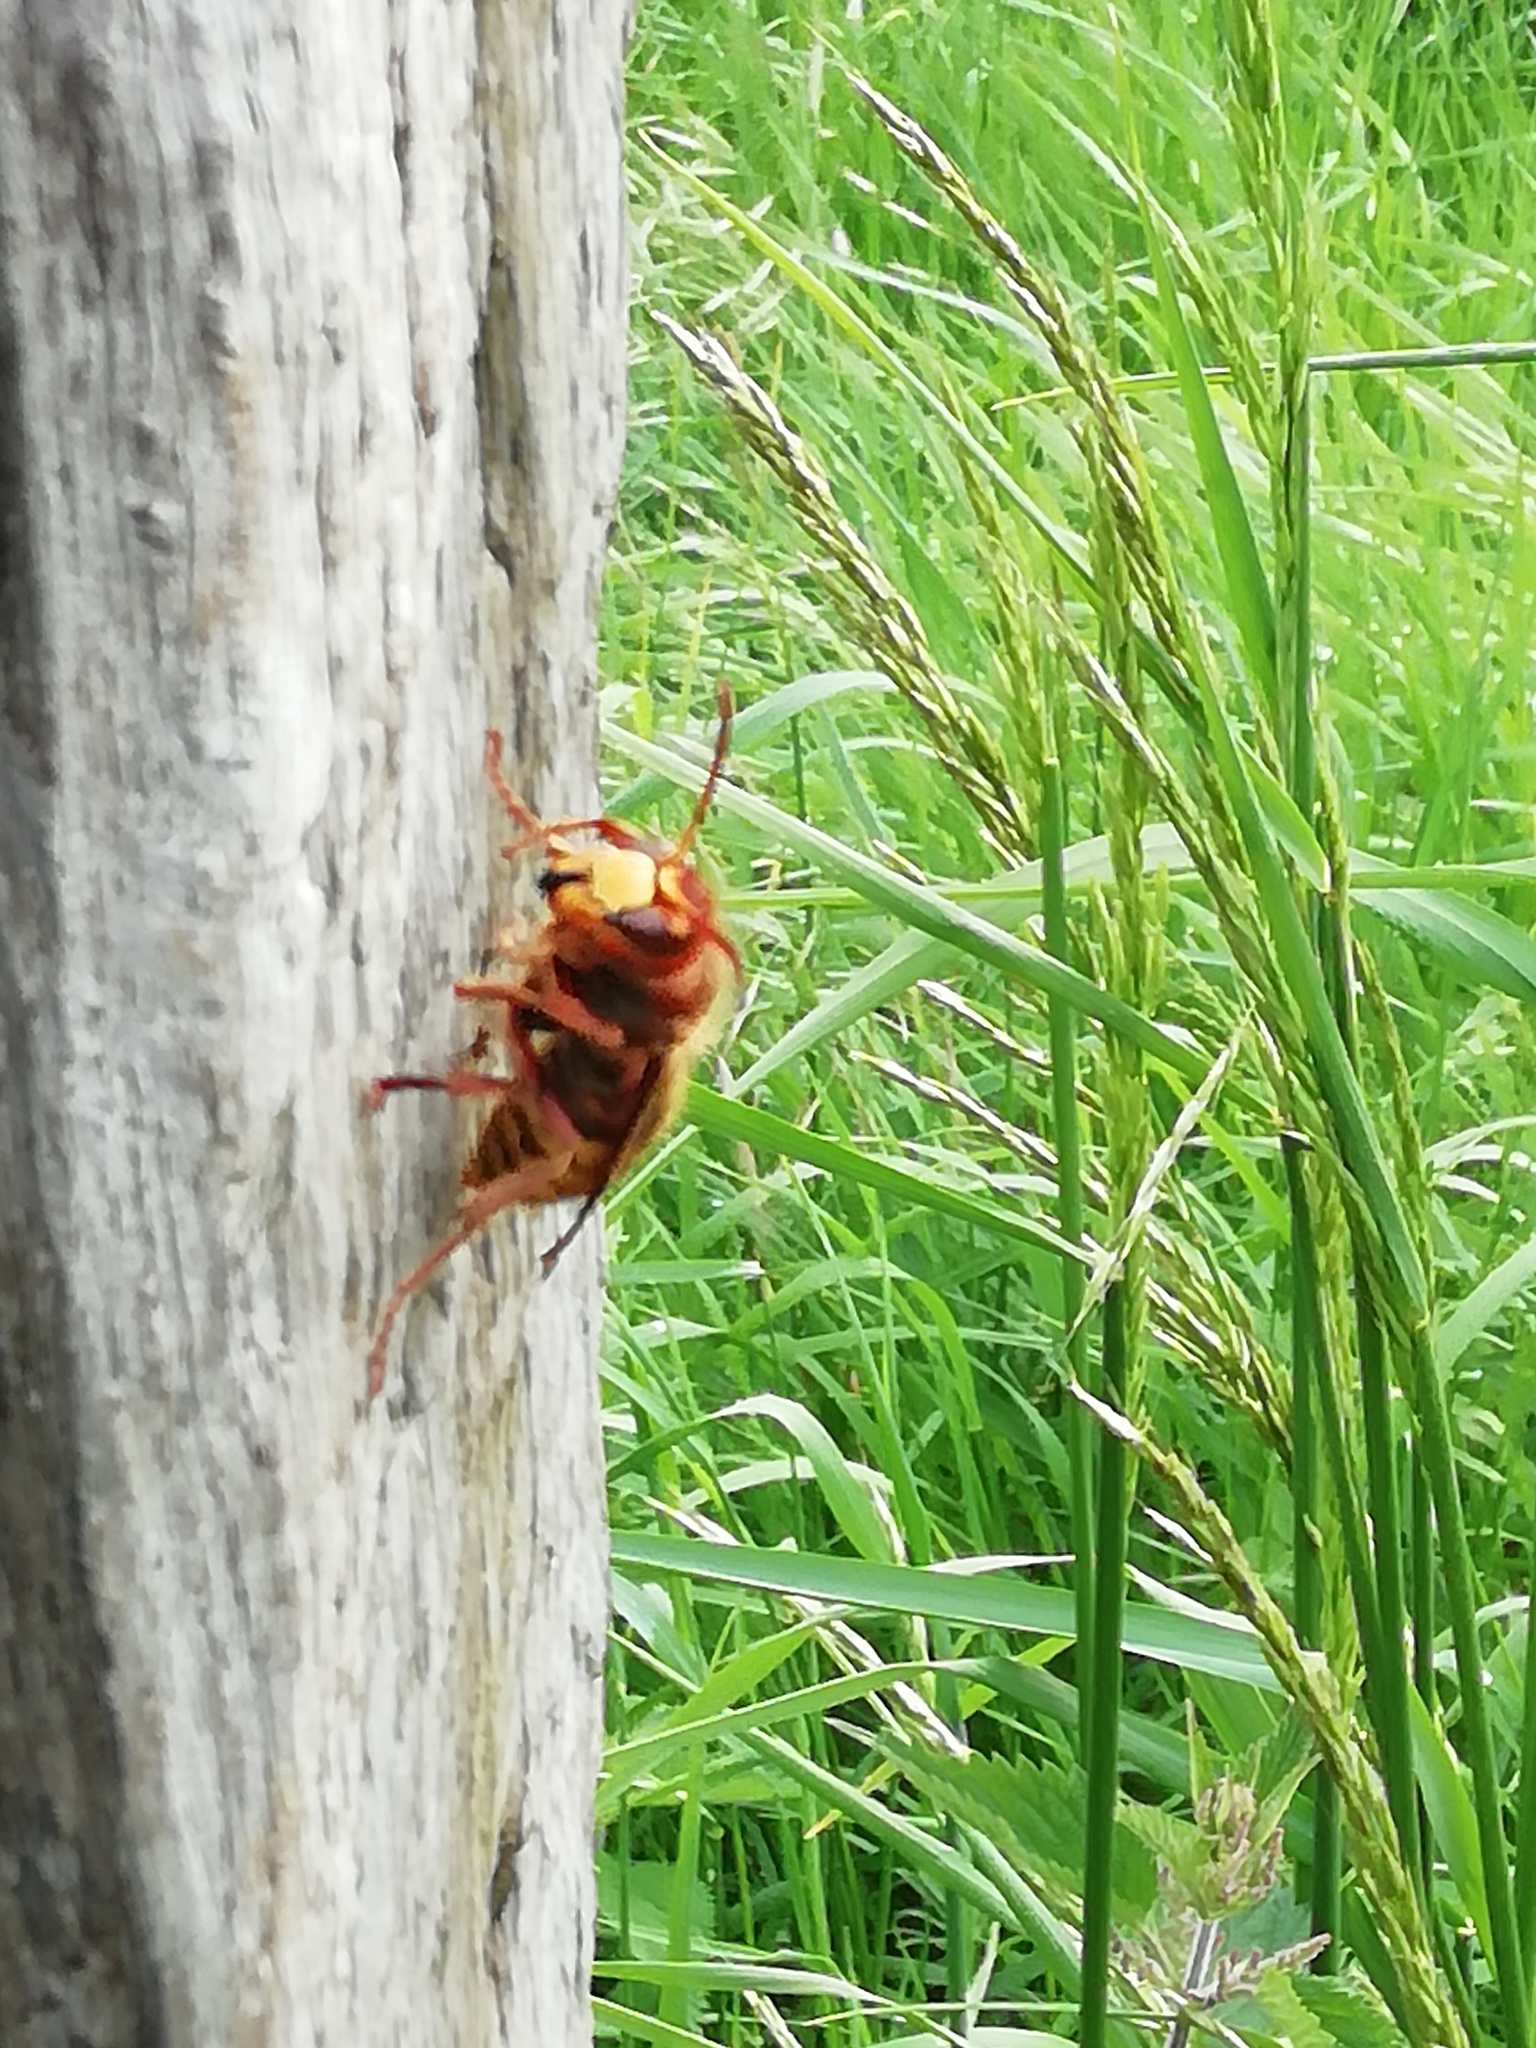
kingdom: Animalia
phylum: Arthropoda
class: Insecta
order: Hymenoptera
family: Vespidae
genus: Vespa
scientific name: Vespa crabro
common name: Hornet
